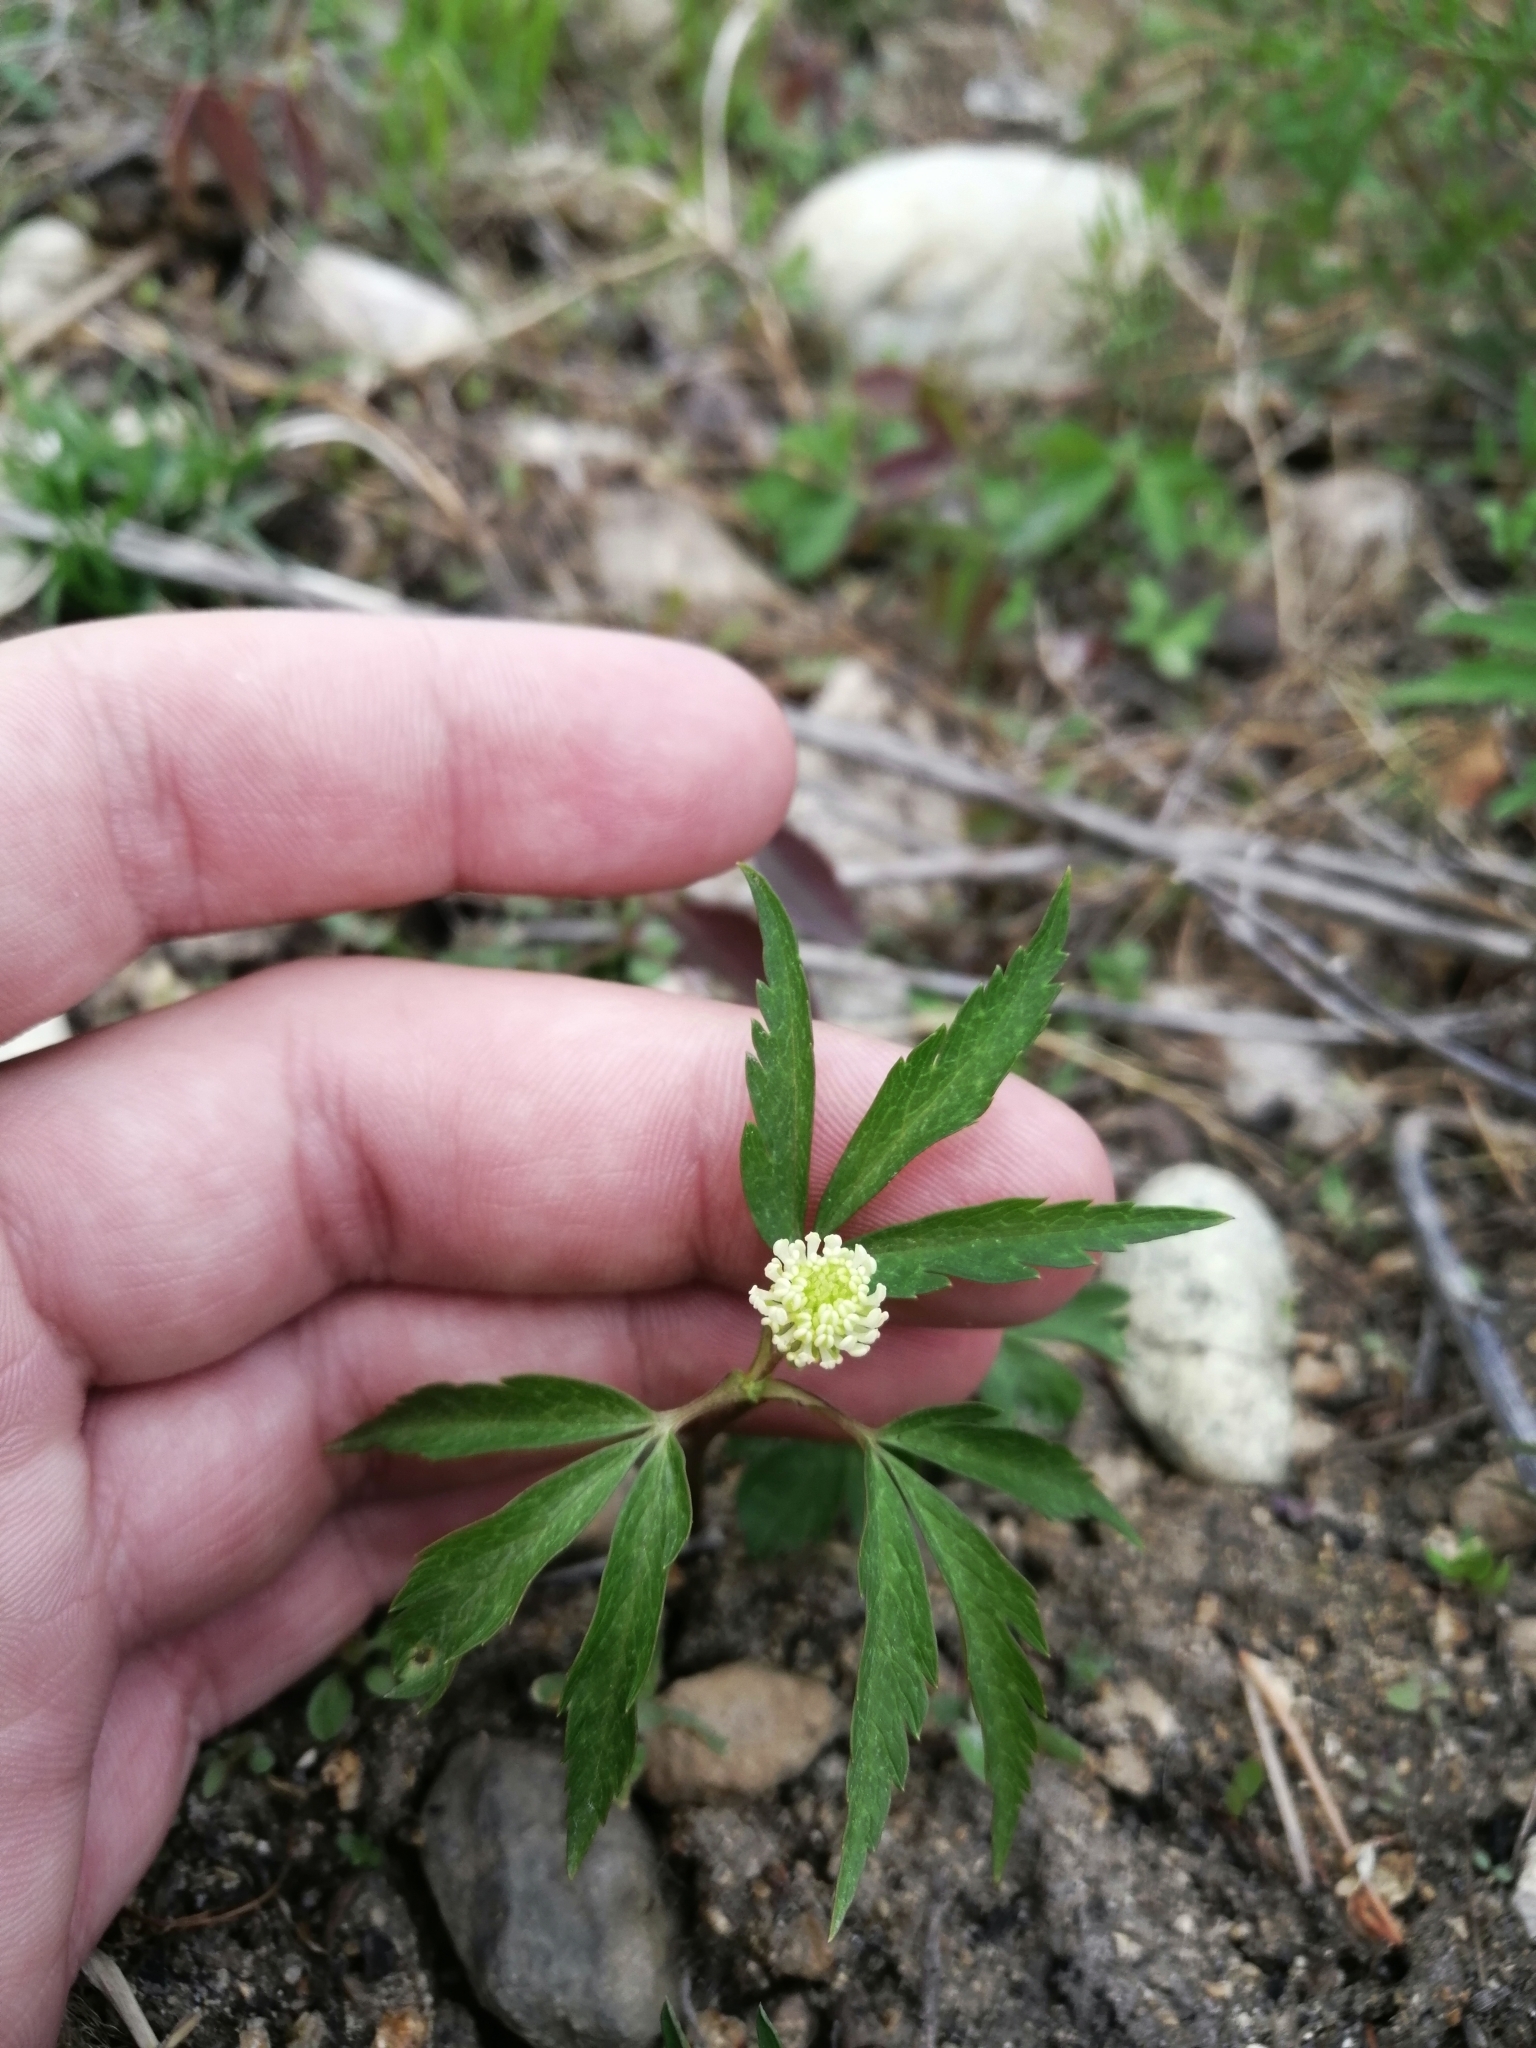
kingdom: Plantae
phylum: Tracheophyta
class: Magnoliopsida
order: Ranunculales
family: Ranunculaceae
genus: Anemone
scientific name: Anemone reflexa
